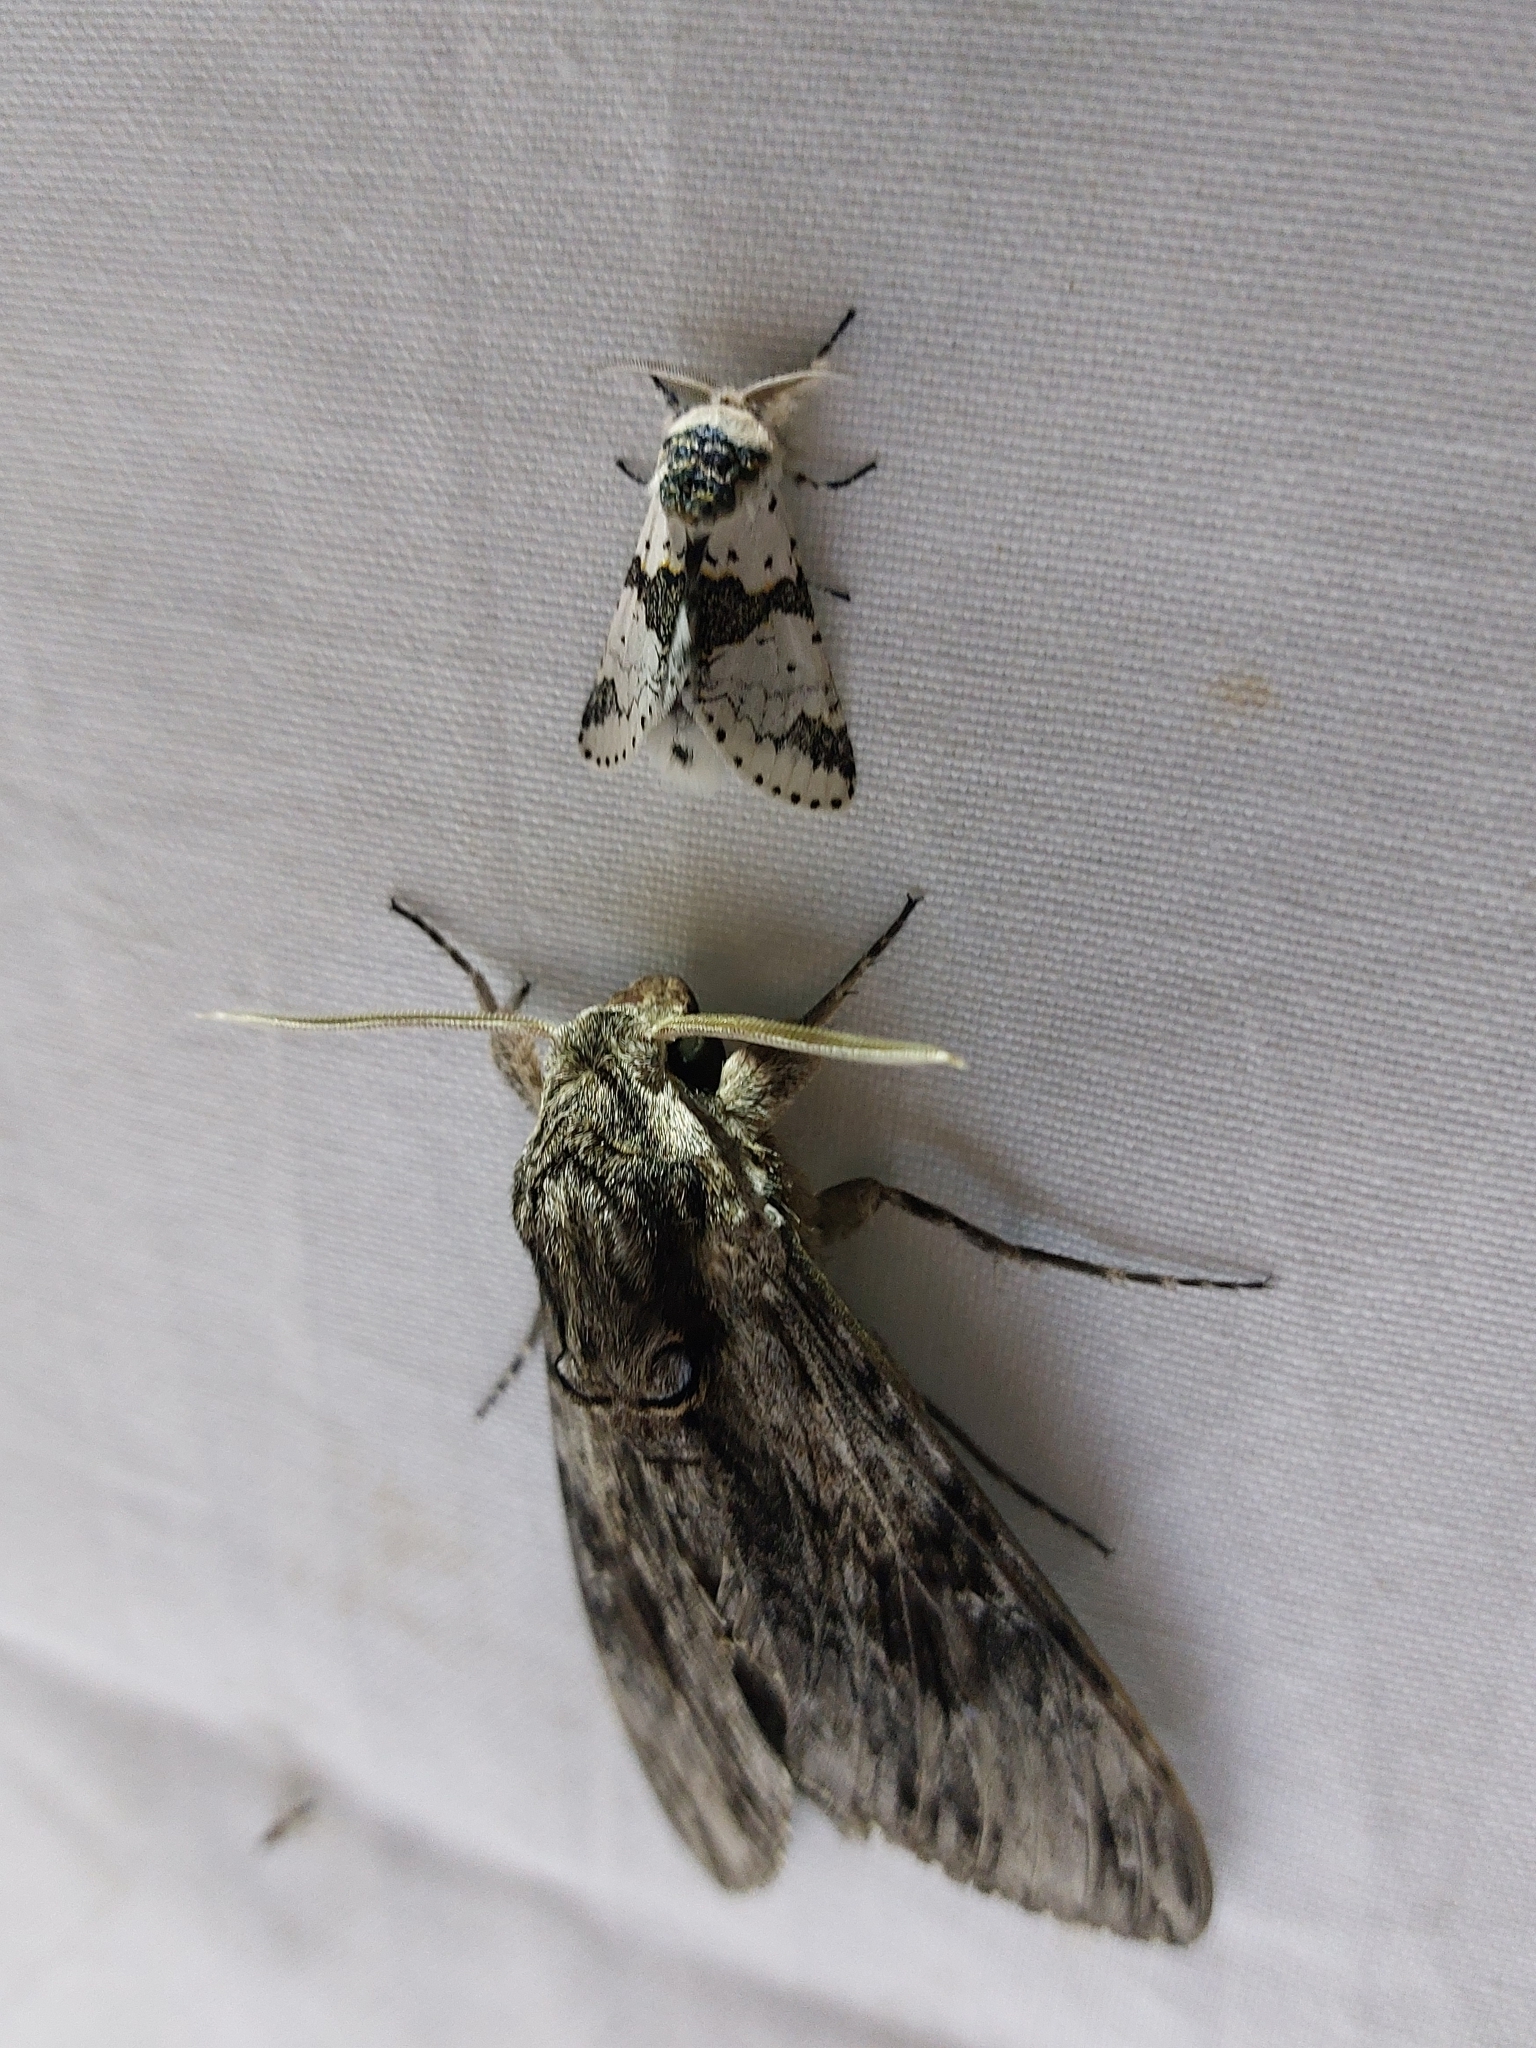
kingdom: Animalia
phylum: Arthropoda
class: Insecta
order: Lepidoptera
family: Sphingidae
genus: Agrius
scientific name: Agrius convolvuli
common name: Convolvulus hawkmoth
